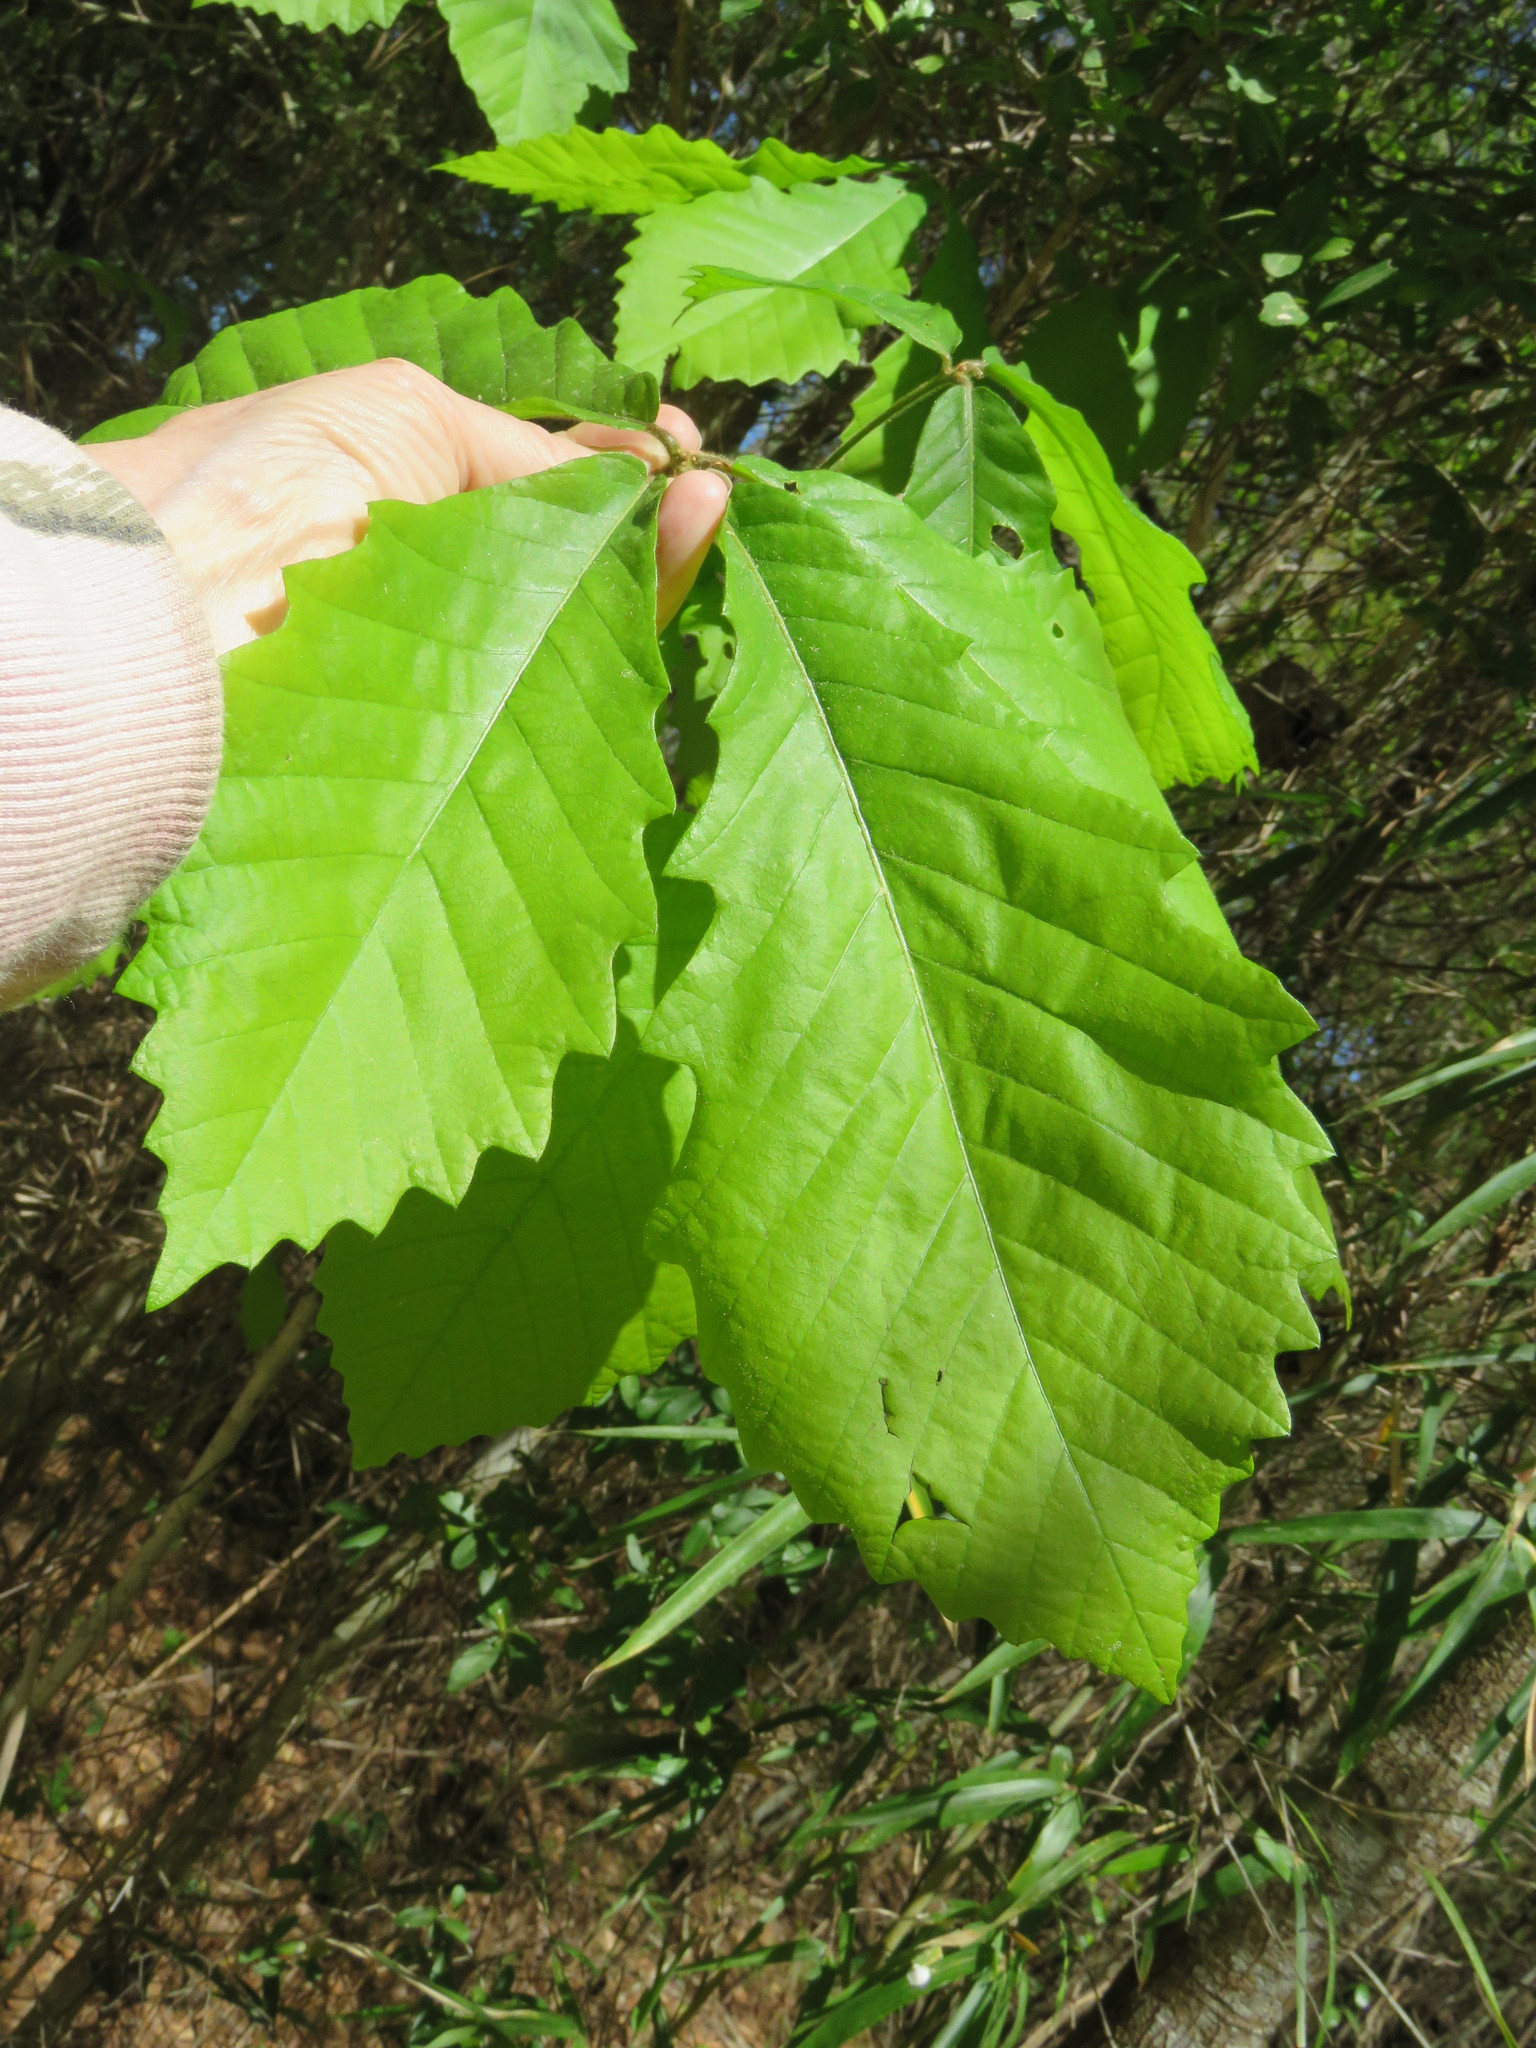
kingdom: Plantae
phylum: Tracheophyta
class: Magnoliopsida
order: Fagales
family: Fagaceae
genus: Quercus
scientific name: Quercus michauxii
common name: Swamp chestnut oak
